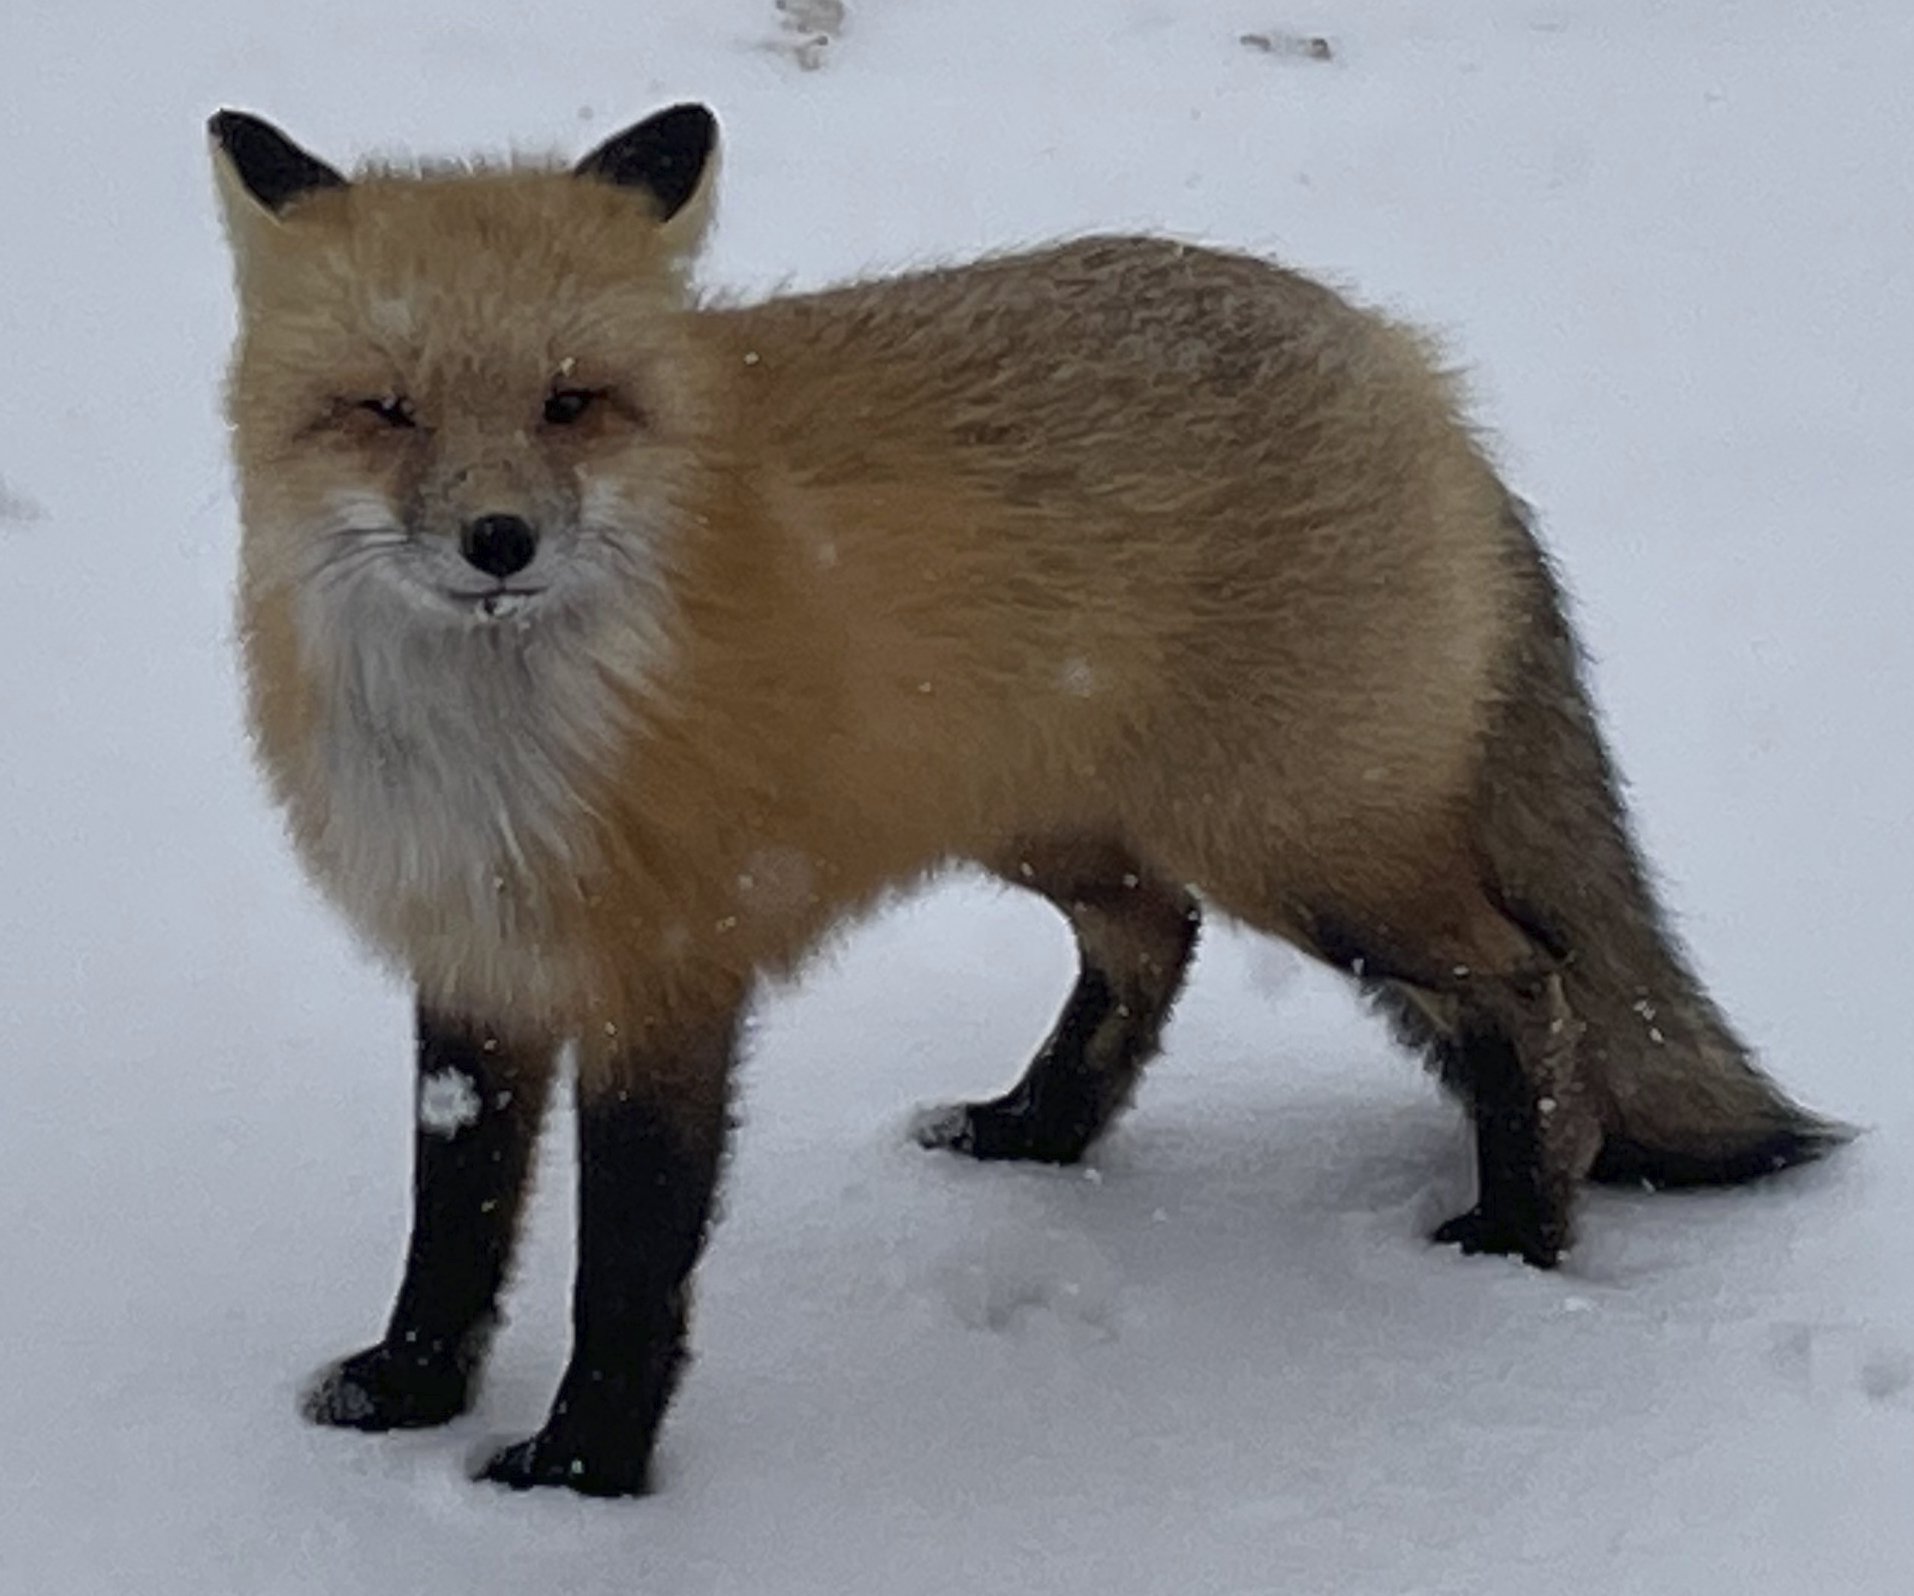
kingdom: Animalia
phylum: Chordata
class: Mammalia
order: Carnivora
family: Canidae
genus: Vulpes
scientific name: Vulpes vulpes
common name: Red fox
